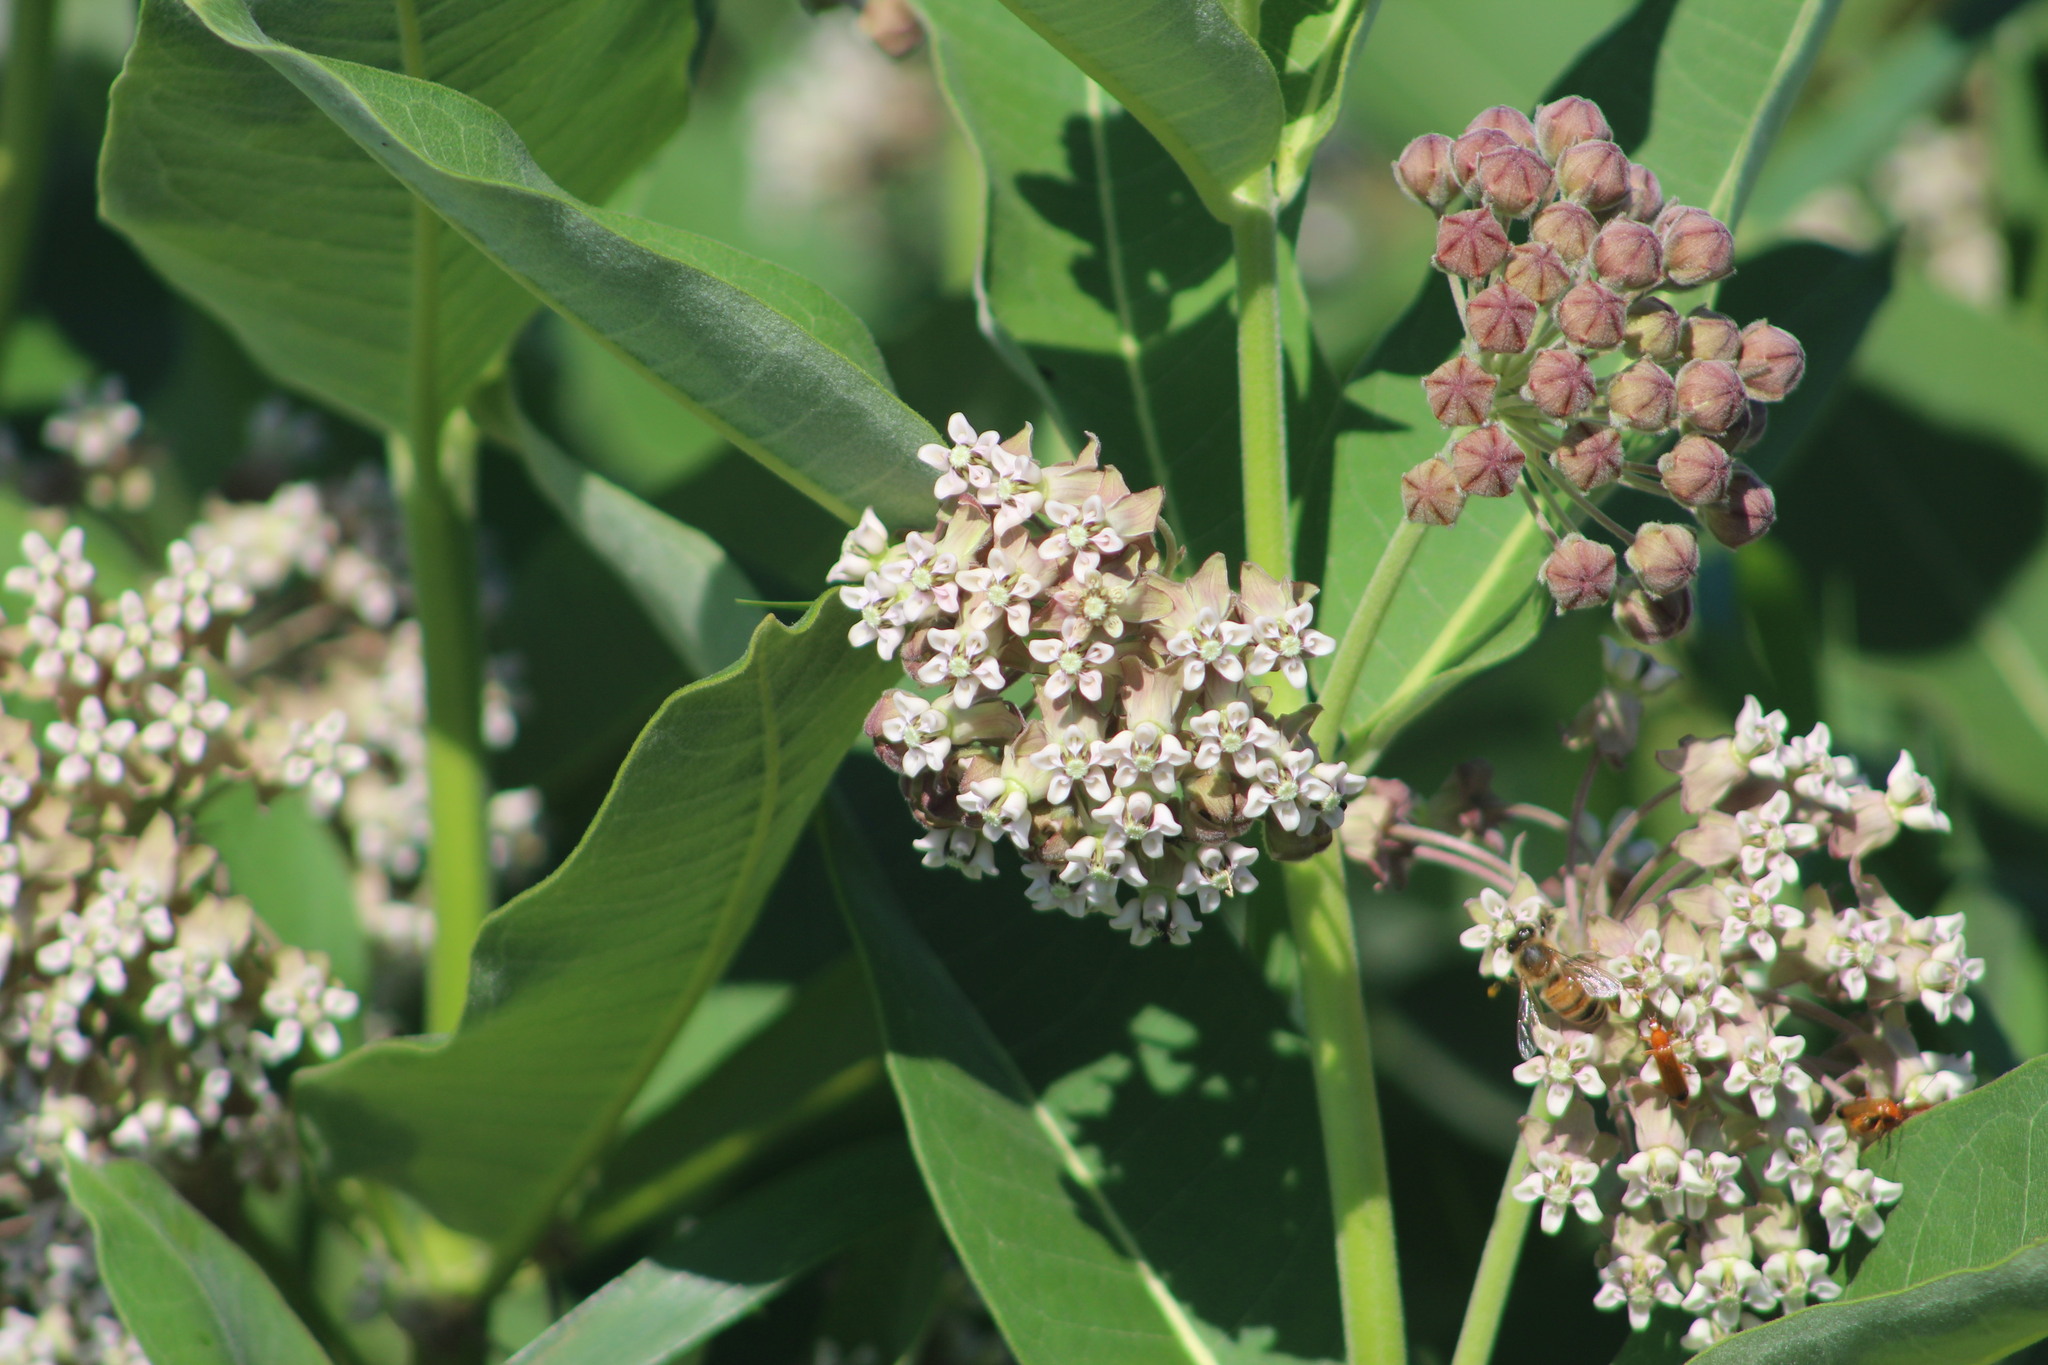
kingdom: Plantae
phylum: Tracheophyta
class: Magnoliopsida
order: Gentianales
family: Apocynaceae
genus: Asclepias
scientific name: Asclepias syriaca
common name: Common milkweed
